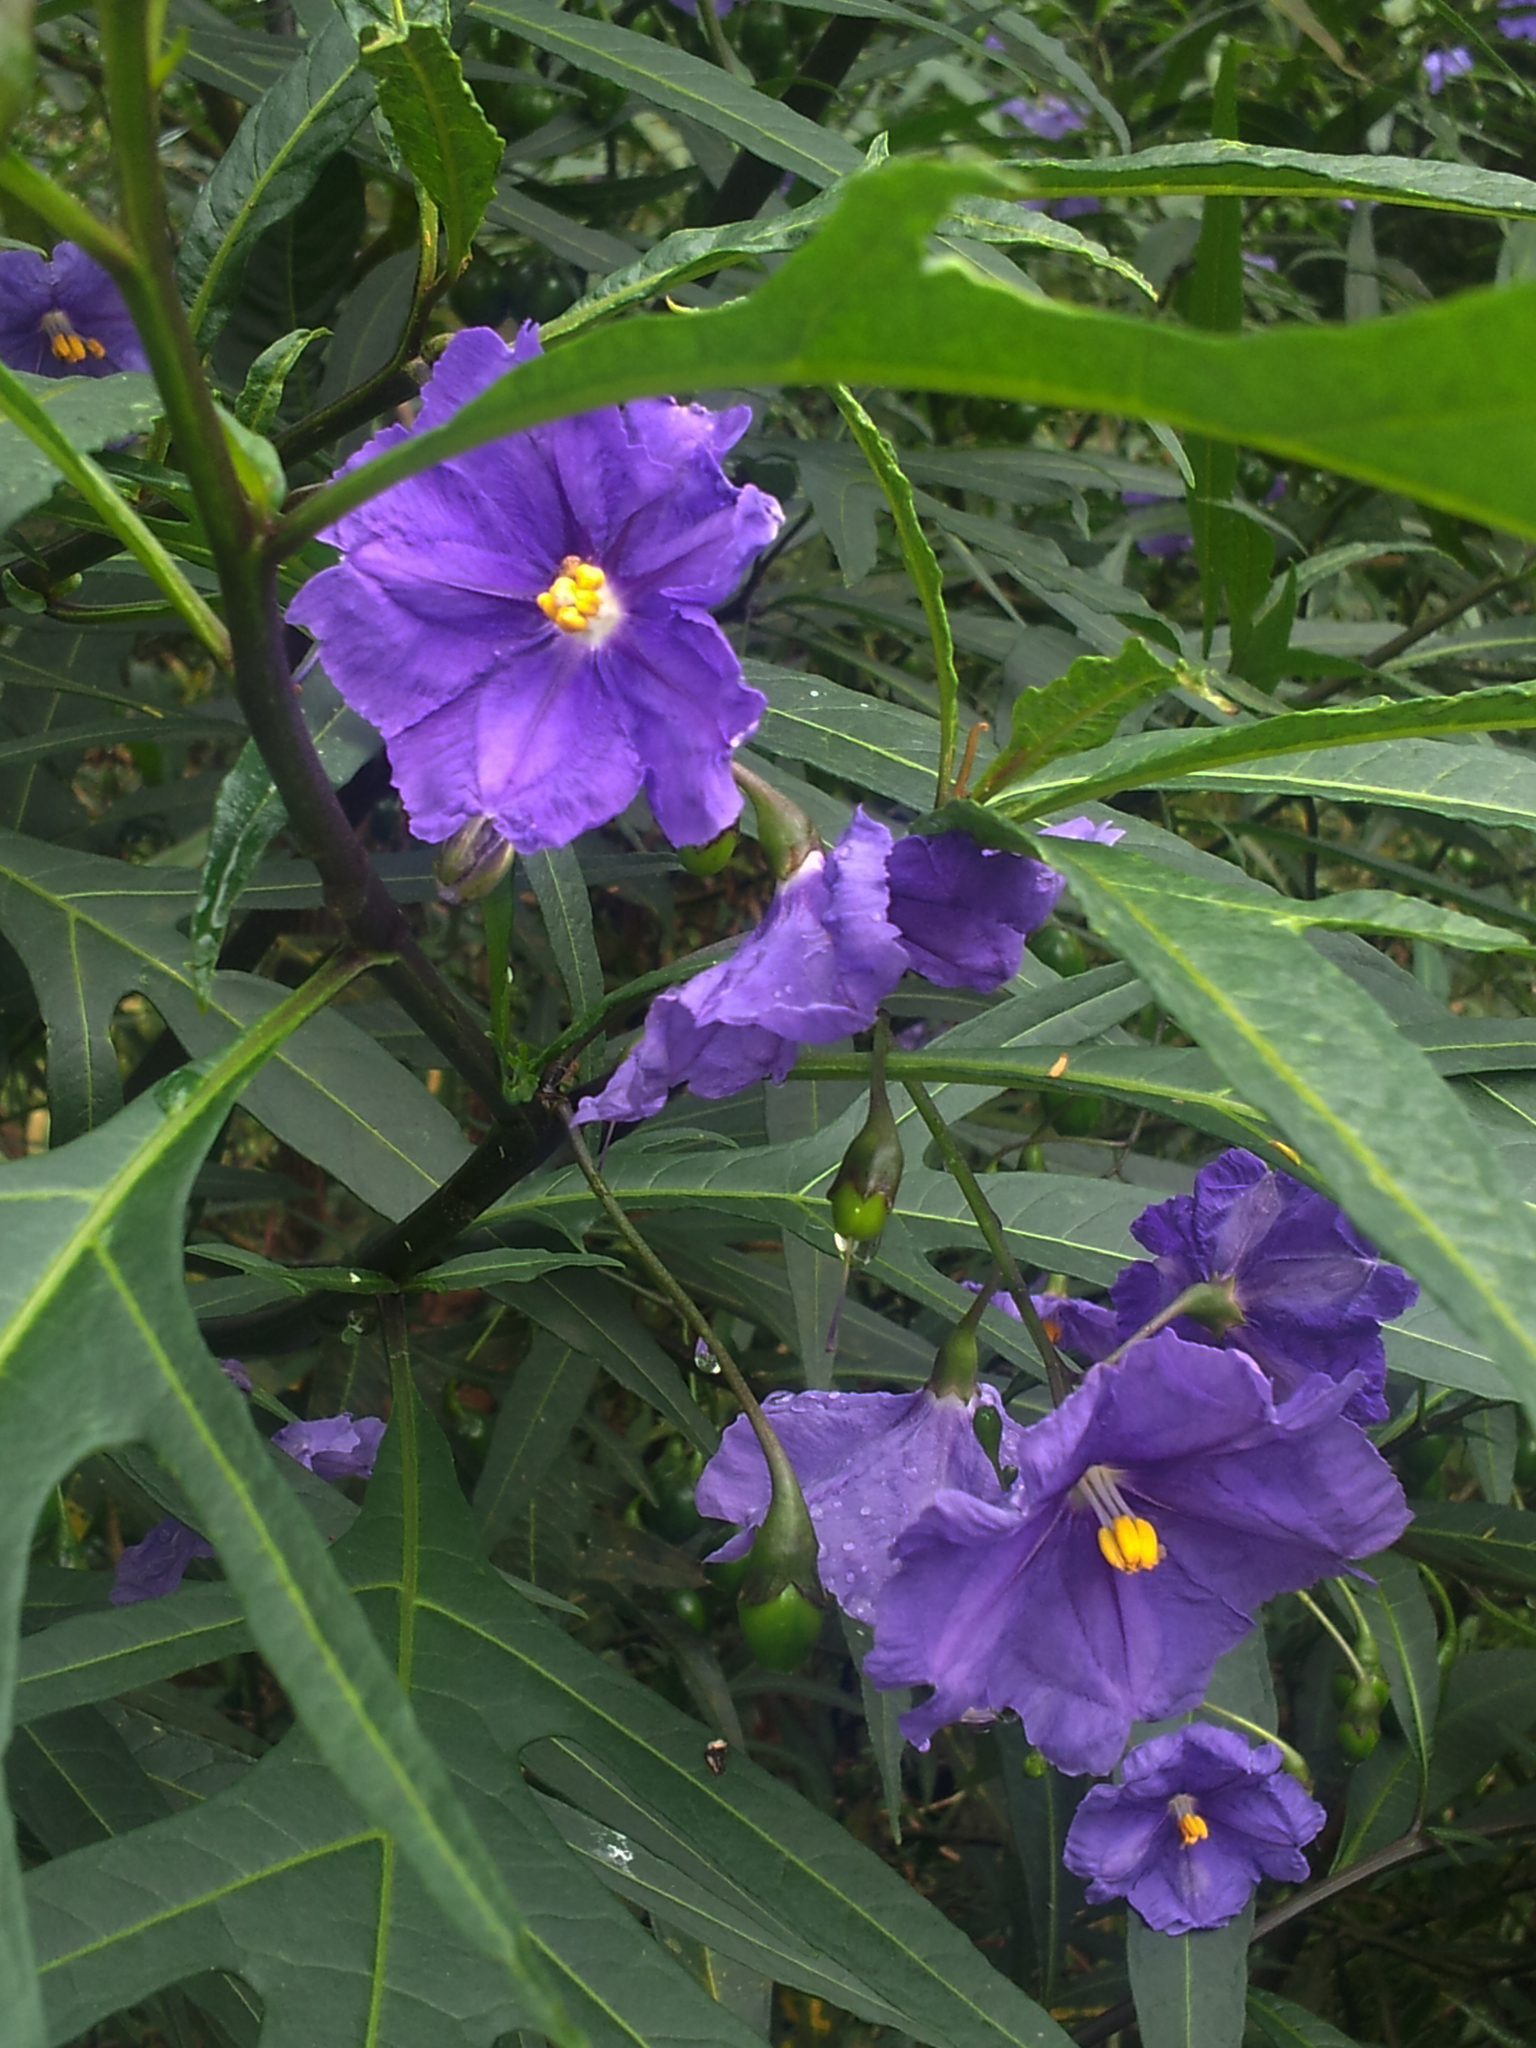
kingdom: Plantae
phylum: Tracheophyta
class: Magnoliopsida
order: Solanales
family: Solanaceae
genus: Solanum
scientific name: Solanum laciniatum
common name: Kangaroo-apple
